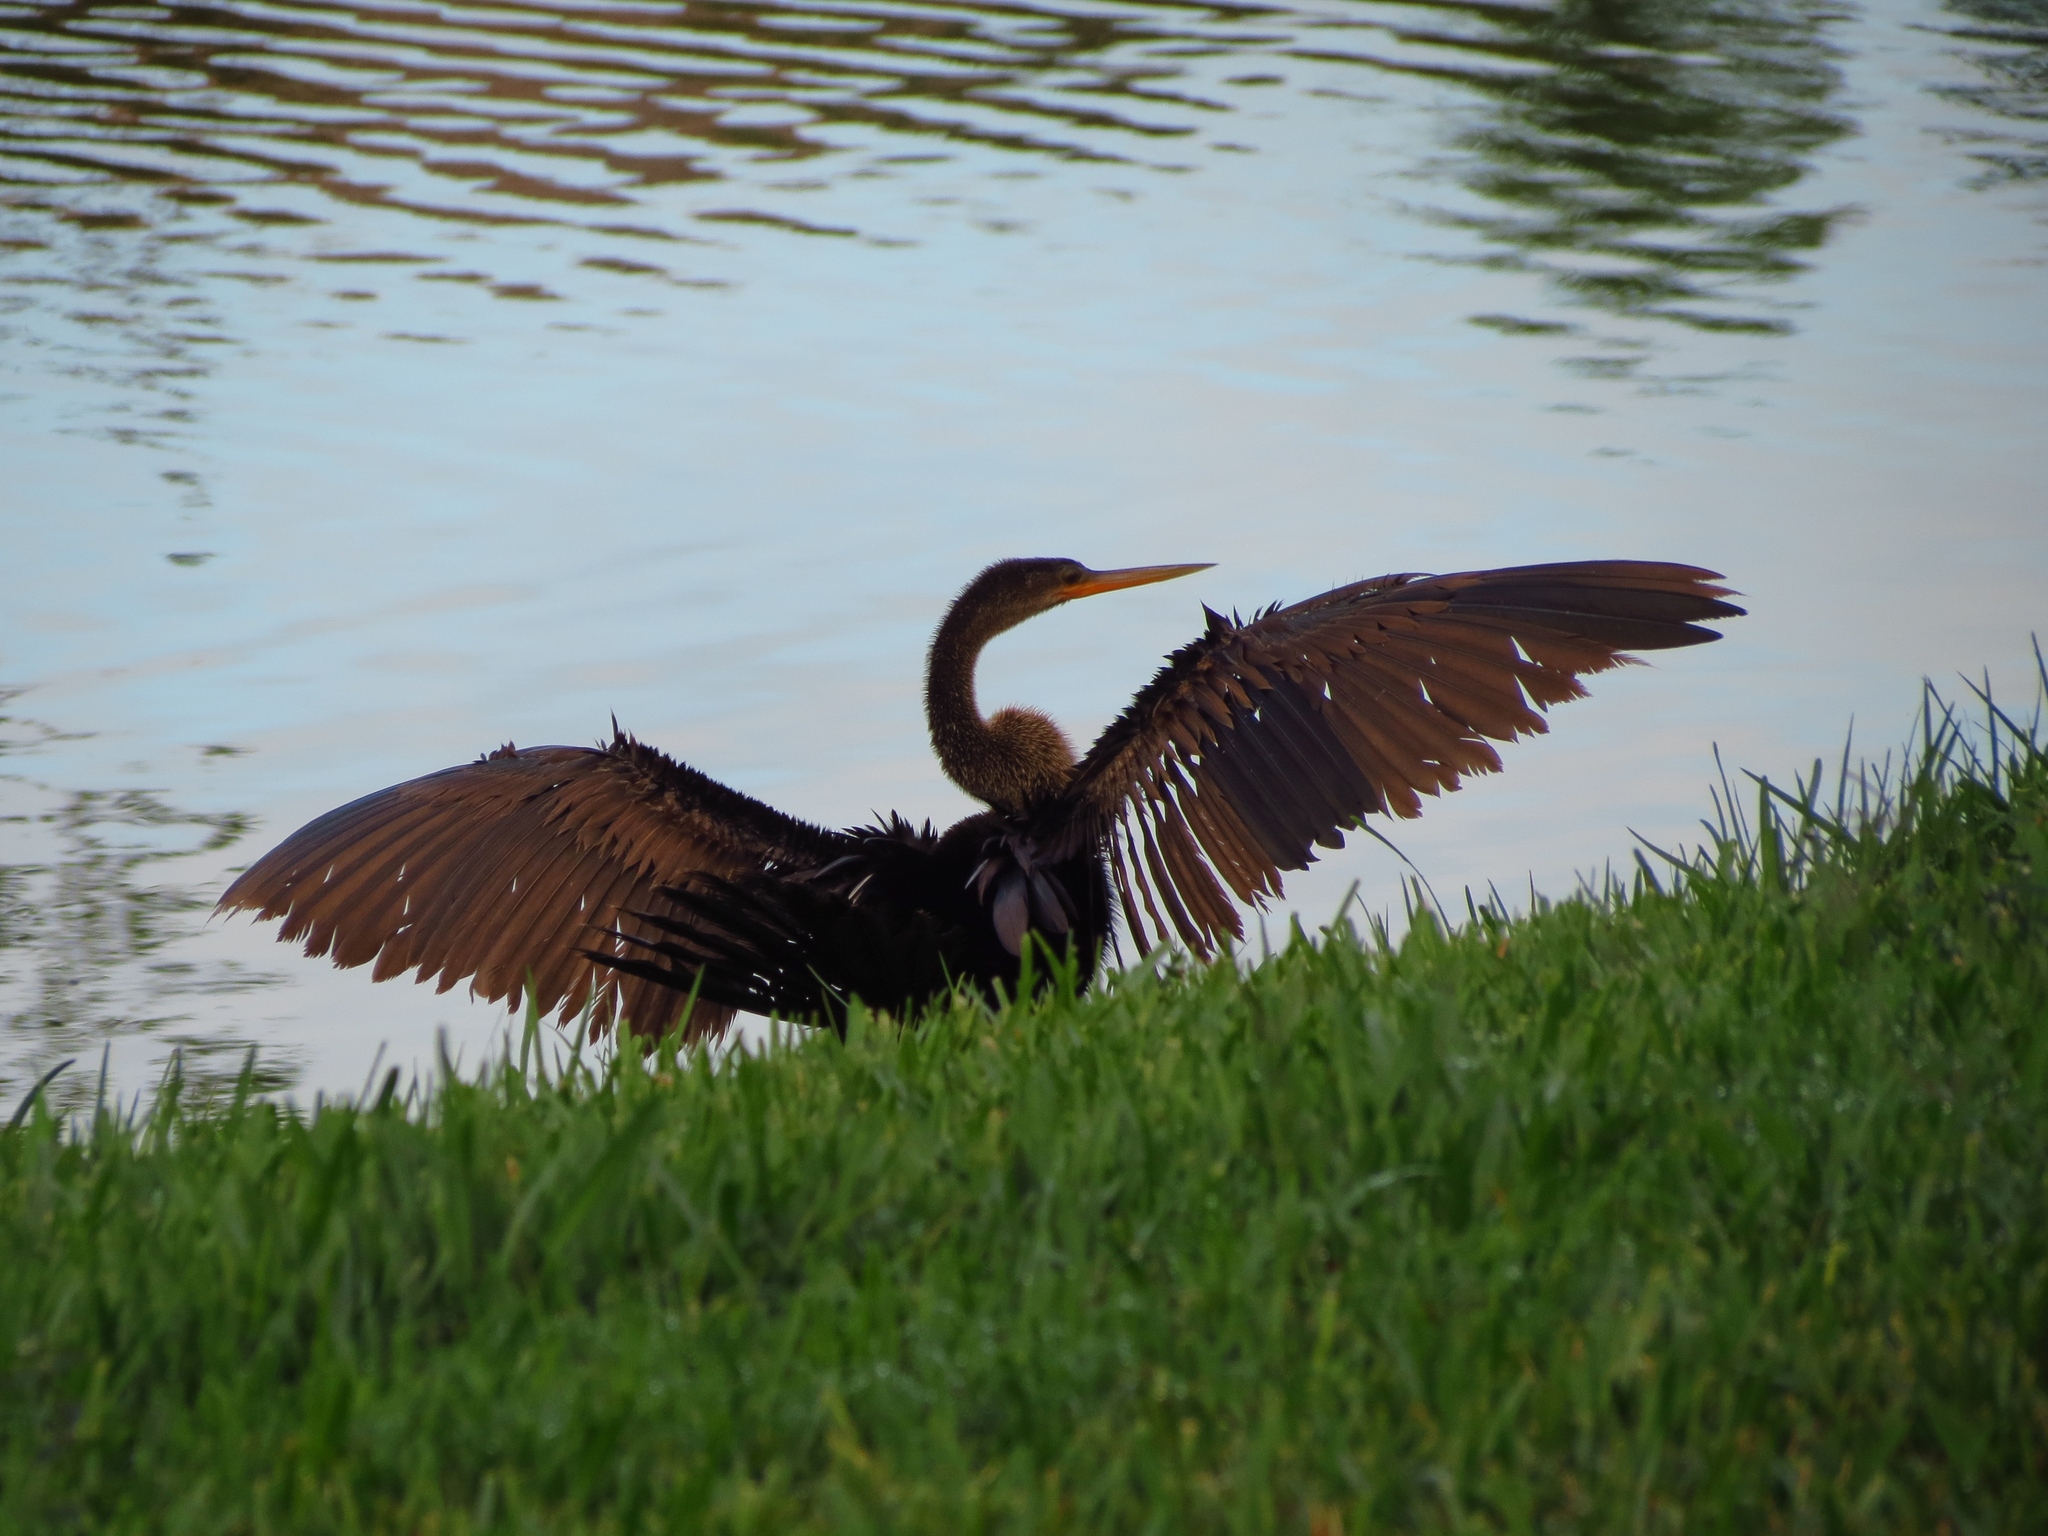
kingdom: Animalia
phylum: Chordata
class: Aves
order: Suliformes
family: Anhingidae
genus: Anhinga
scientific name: Anhinga anhinga
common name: Anhinga
